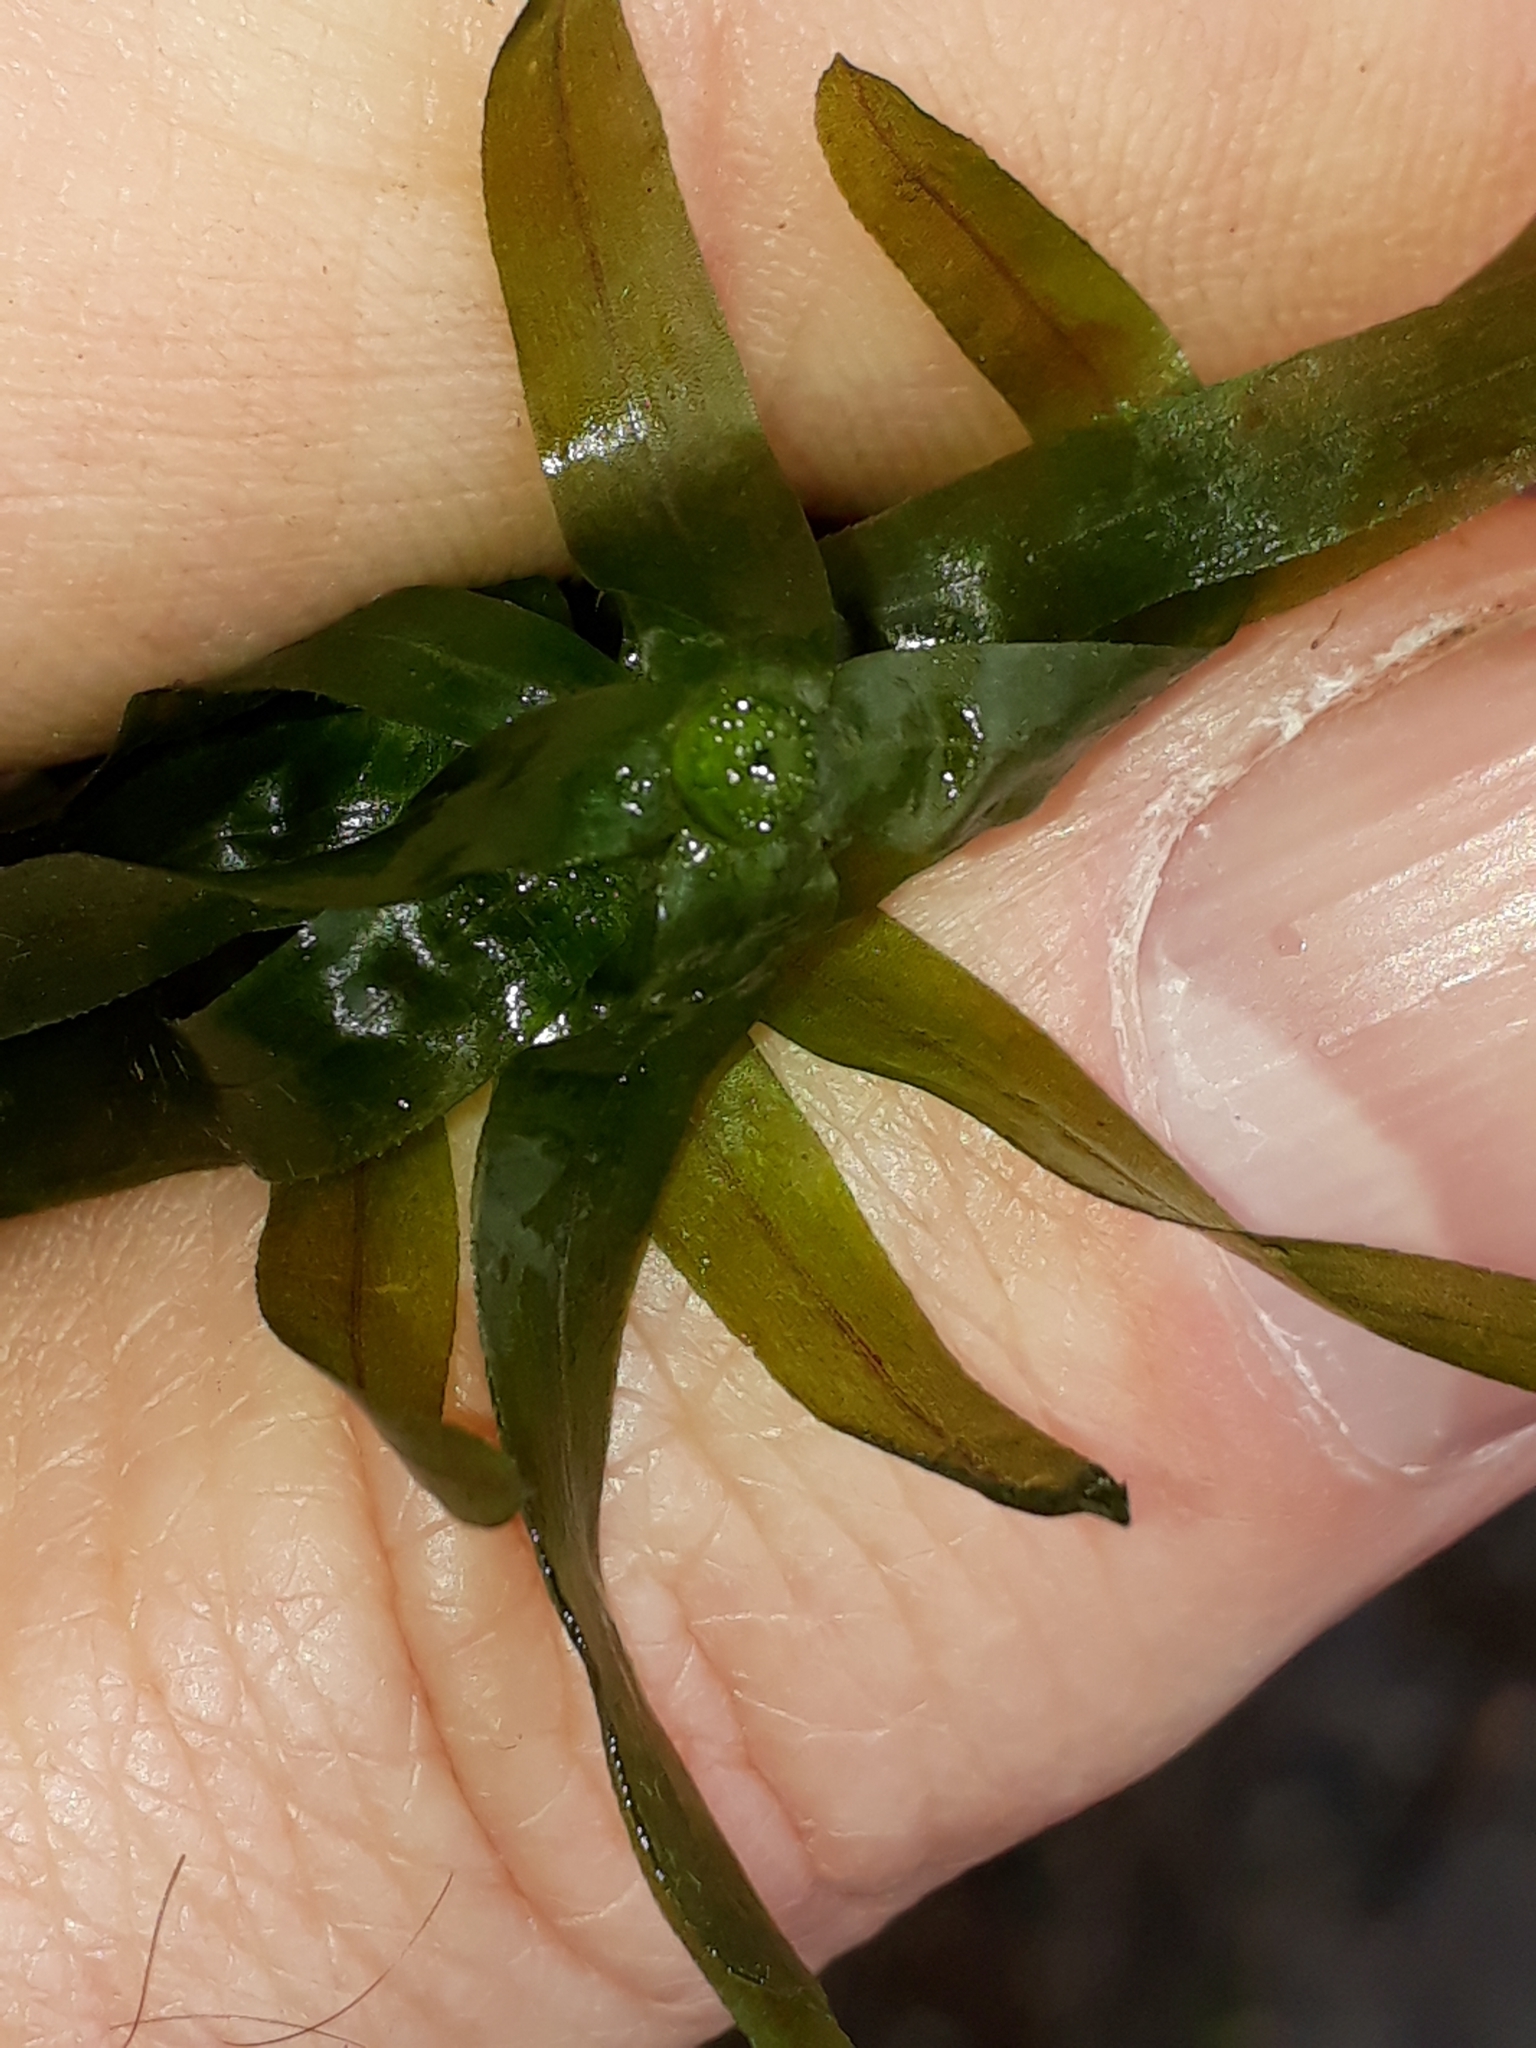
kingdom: Plantae
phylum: Tracheophyta
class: Liliopsida
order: Alismatales
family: Hydrocharitaceae
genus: Elodea
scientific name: Elodea densa
